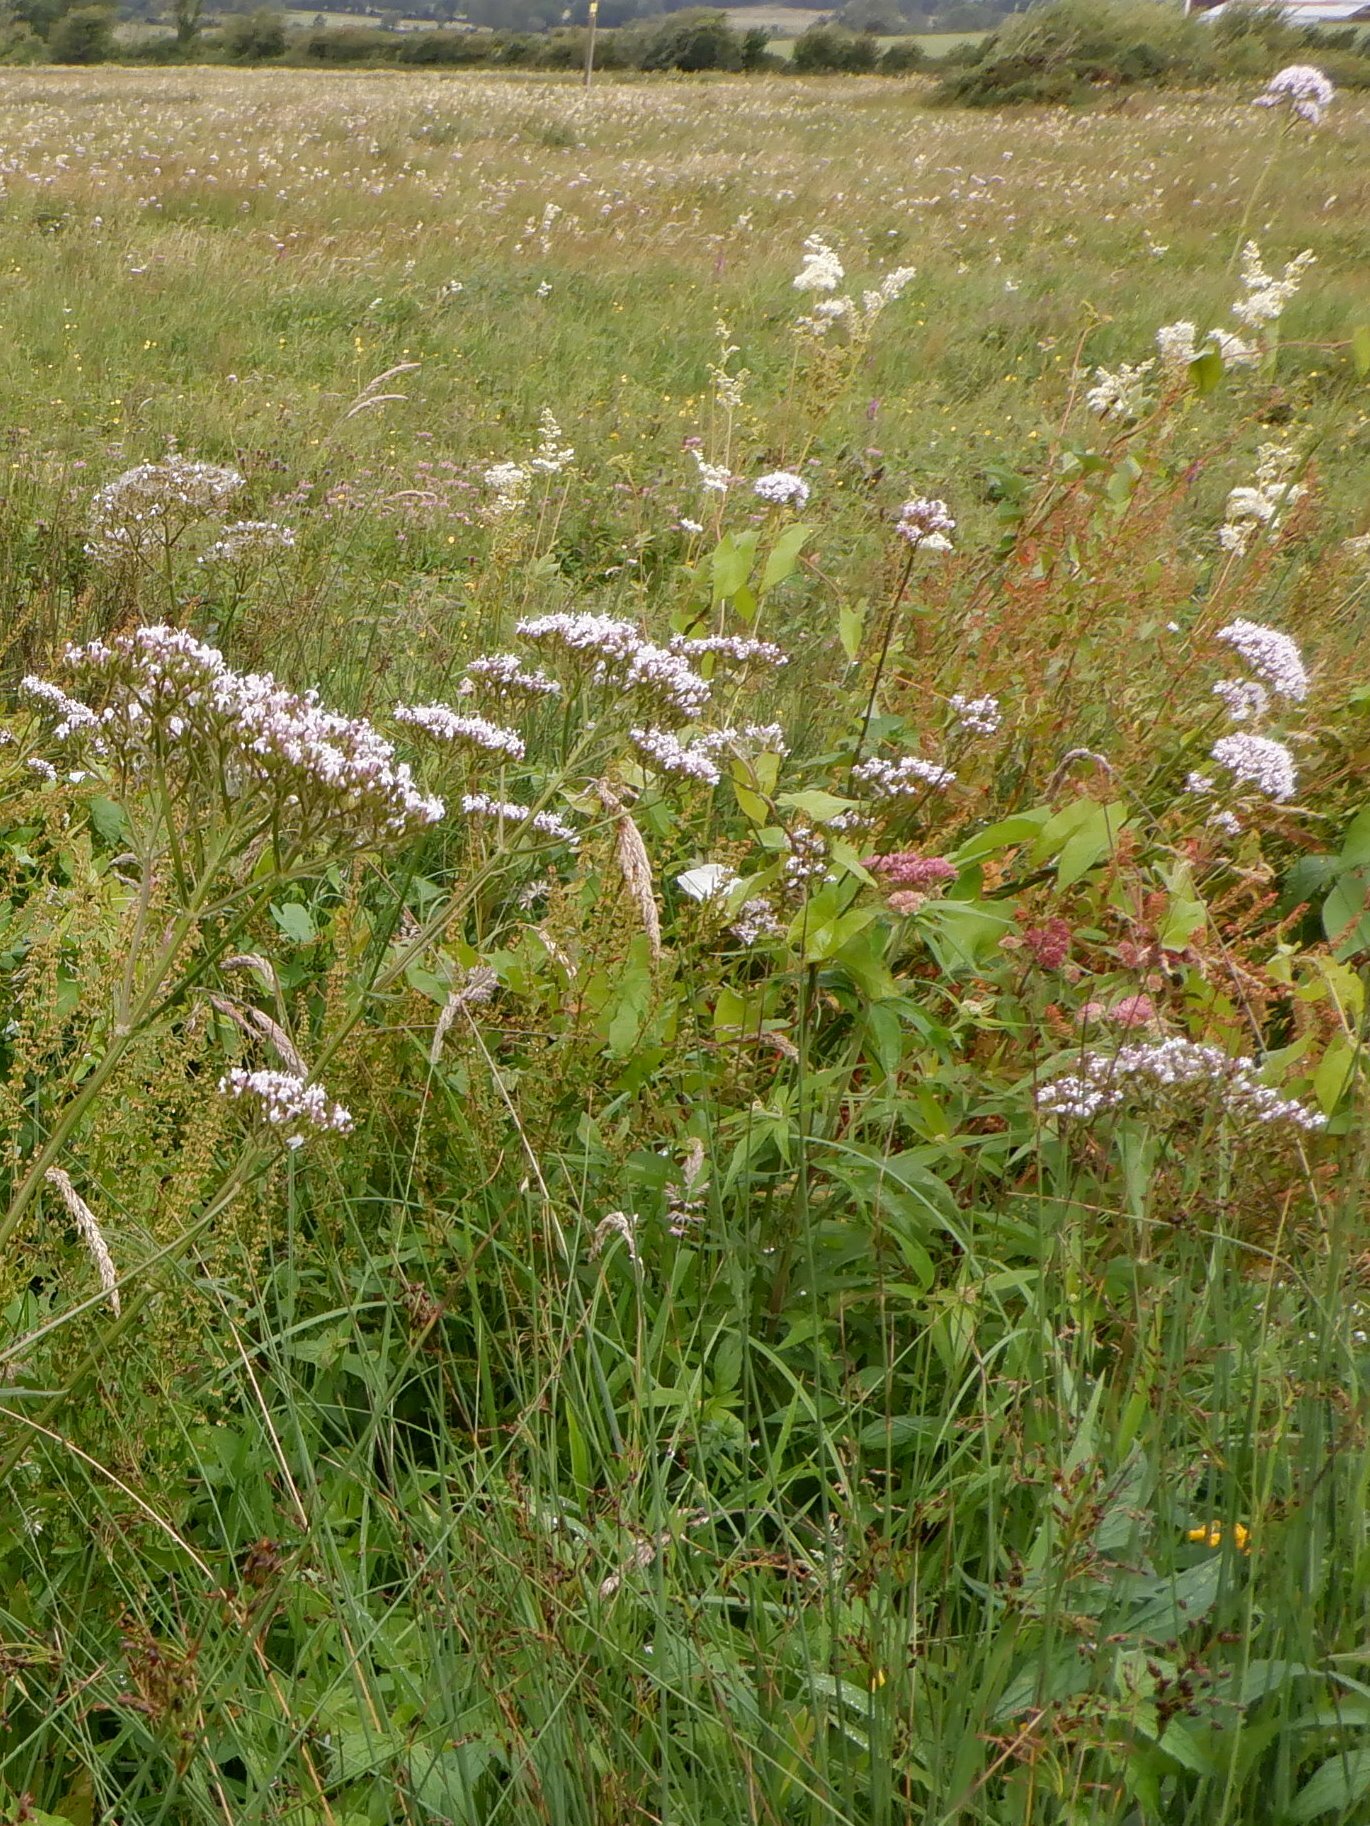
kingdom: Plantae
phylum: Tracheophyta
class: Magnoliopsida
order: Dipsacales
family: Caprifoliaceae
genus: Valeriana
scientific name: Valeriana officinalis
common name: Common valerian
